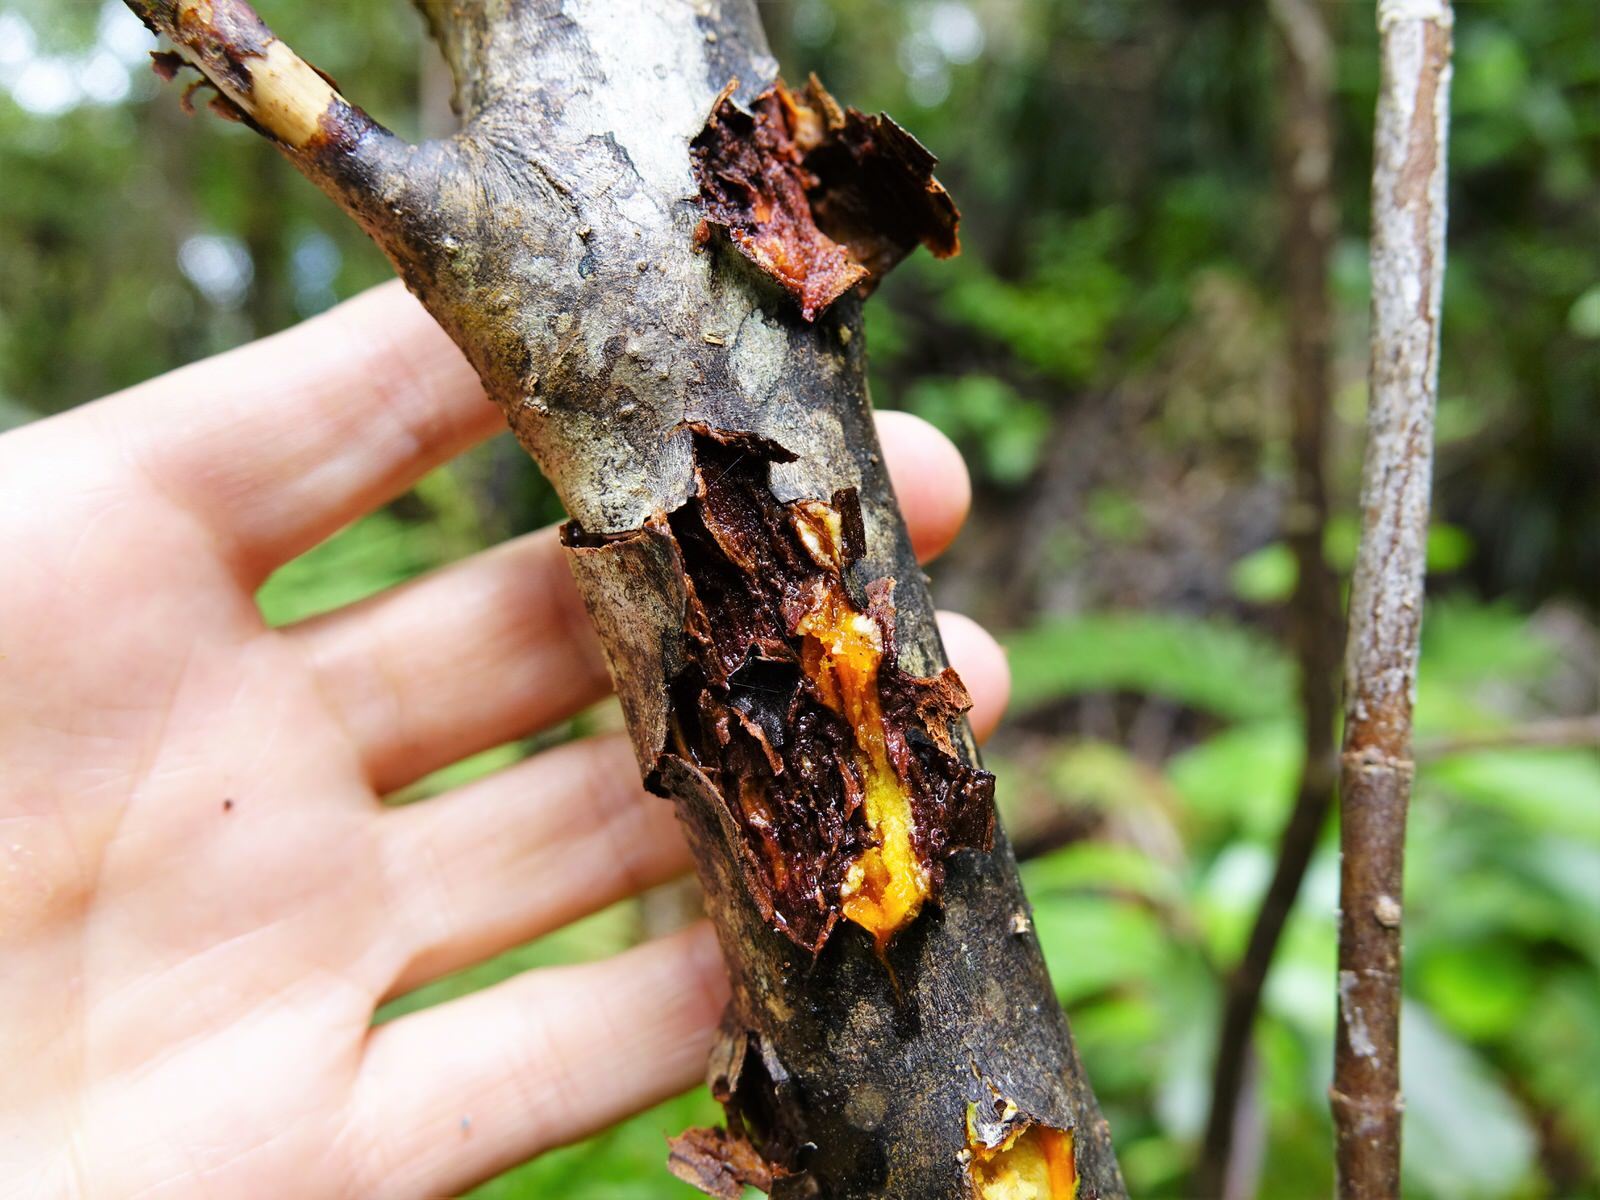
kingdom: Plantae
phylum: Tracheophyta
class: Magnoliopsida
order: Gentianales
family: Rubiaceae
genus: Coprosma
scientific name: Coprosma autumnalis
